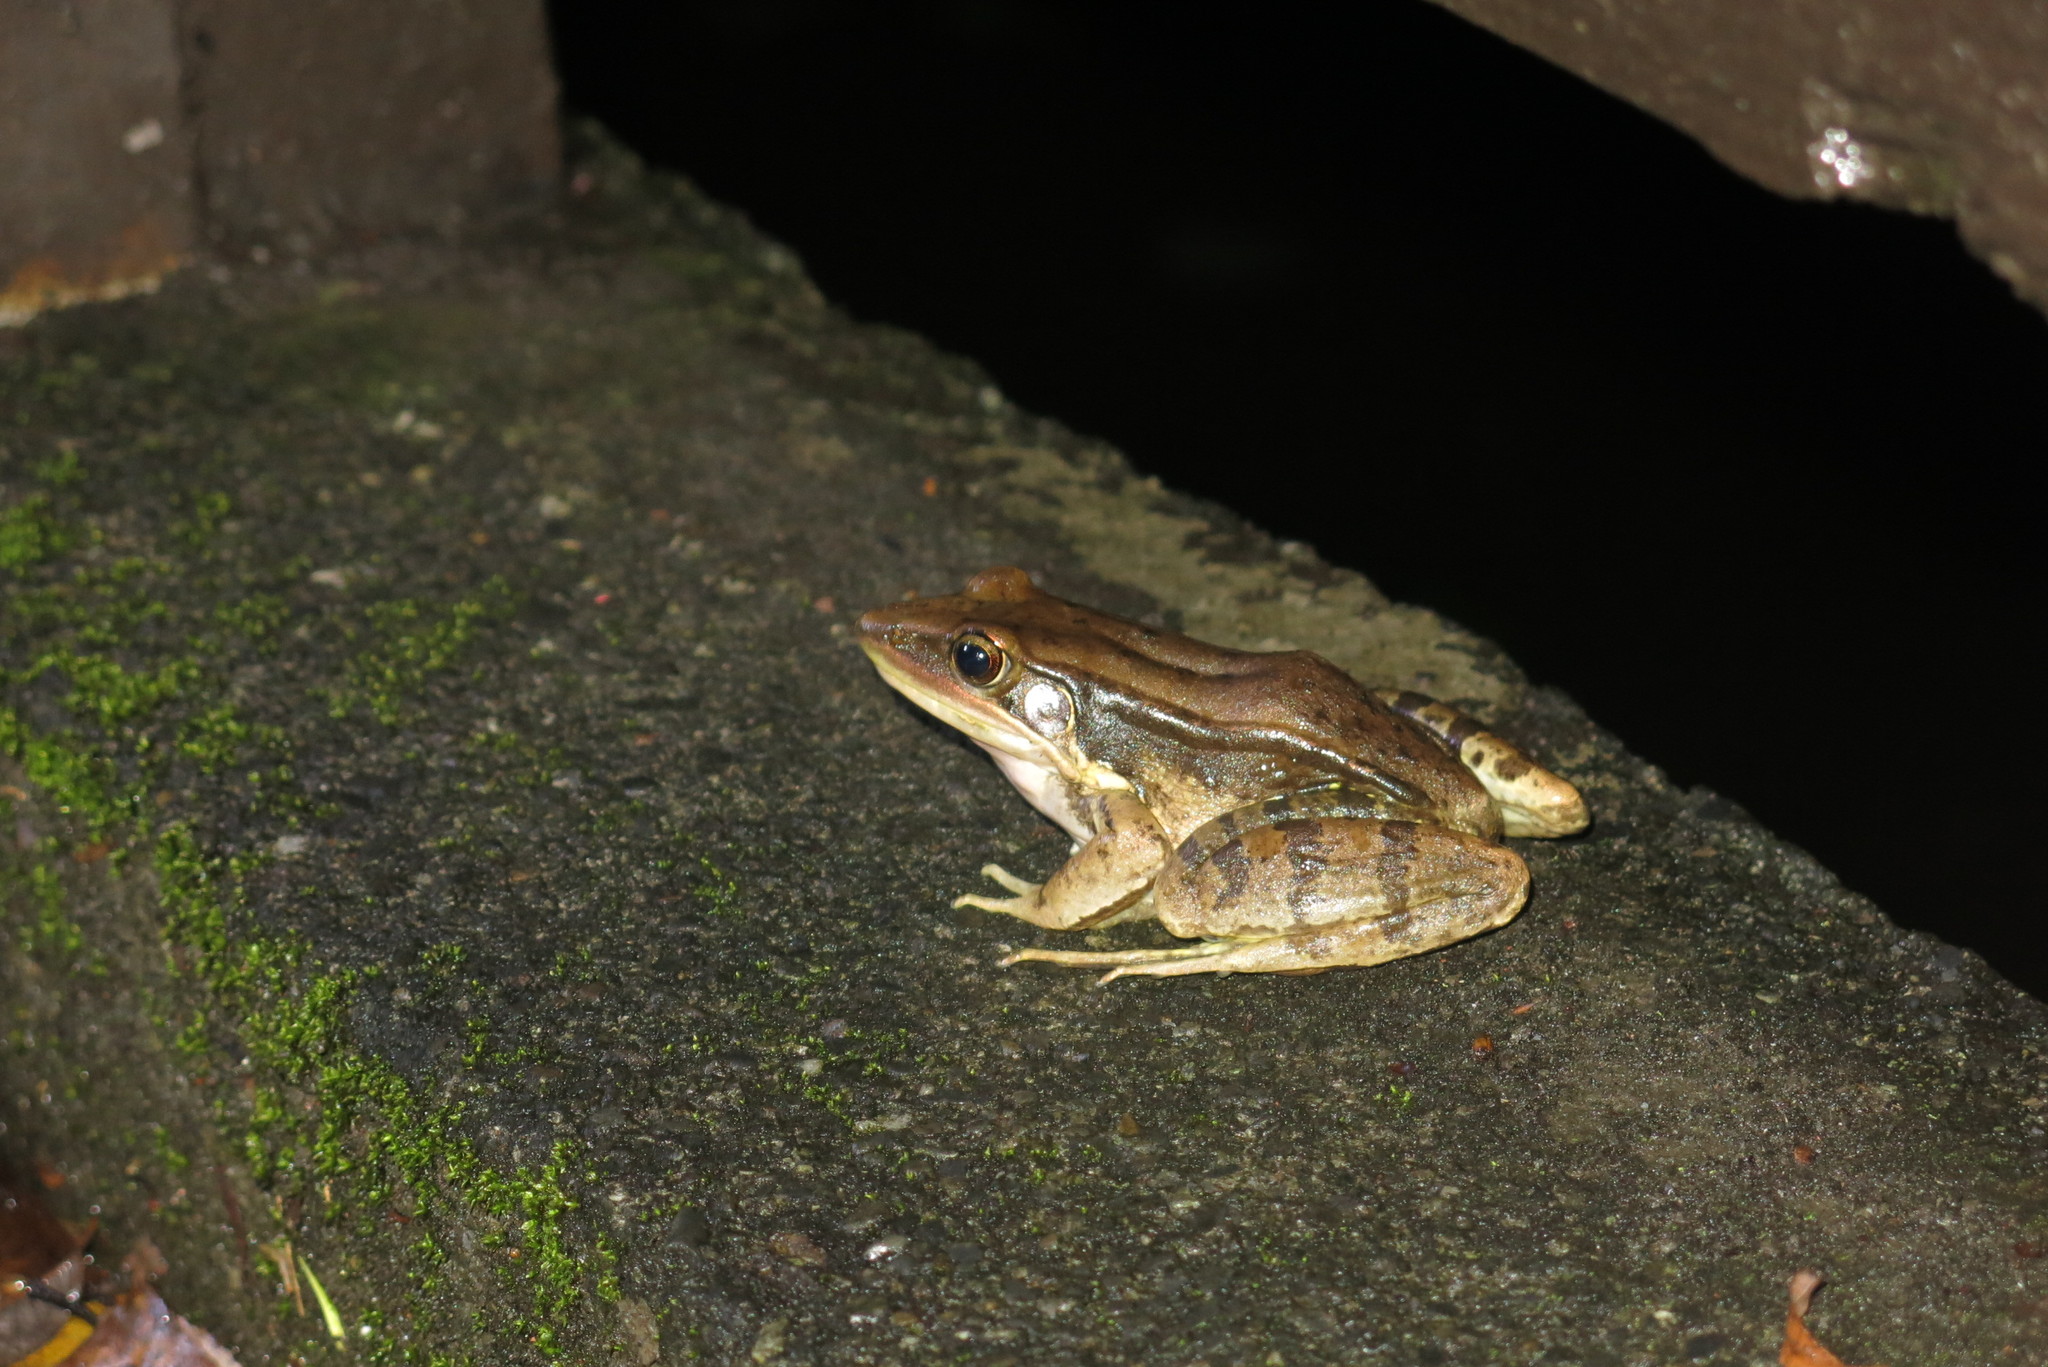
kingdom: Animalia
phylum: Chordata
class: Amphibia
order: Anura
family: Ranidae
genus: Sylvirana
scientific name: Sylvirana guentheri
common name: Guenther's amoy frog
